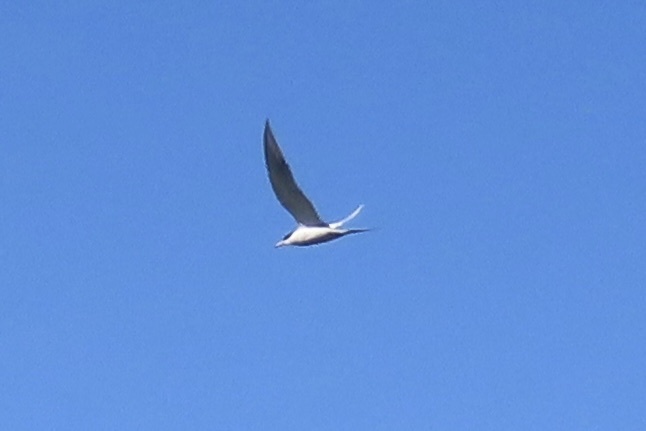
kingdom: Animalia
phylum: Chordata
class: Aves
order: Charadriiformes
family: Laridae
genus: Sterna
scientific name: Sterna forsteri
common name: Forster's tern
